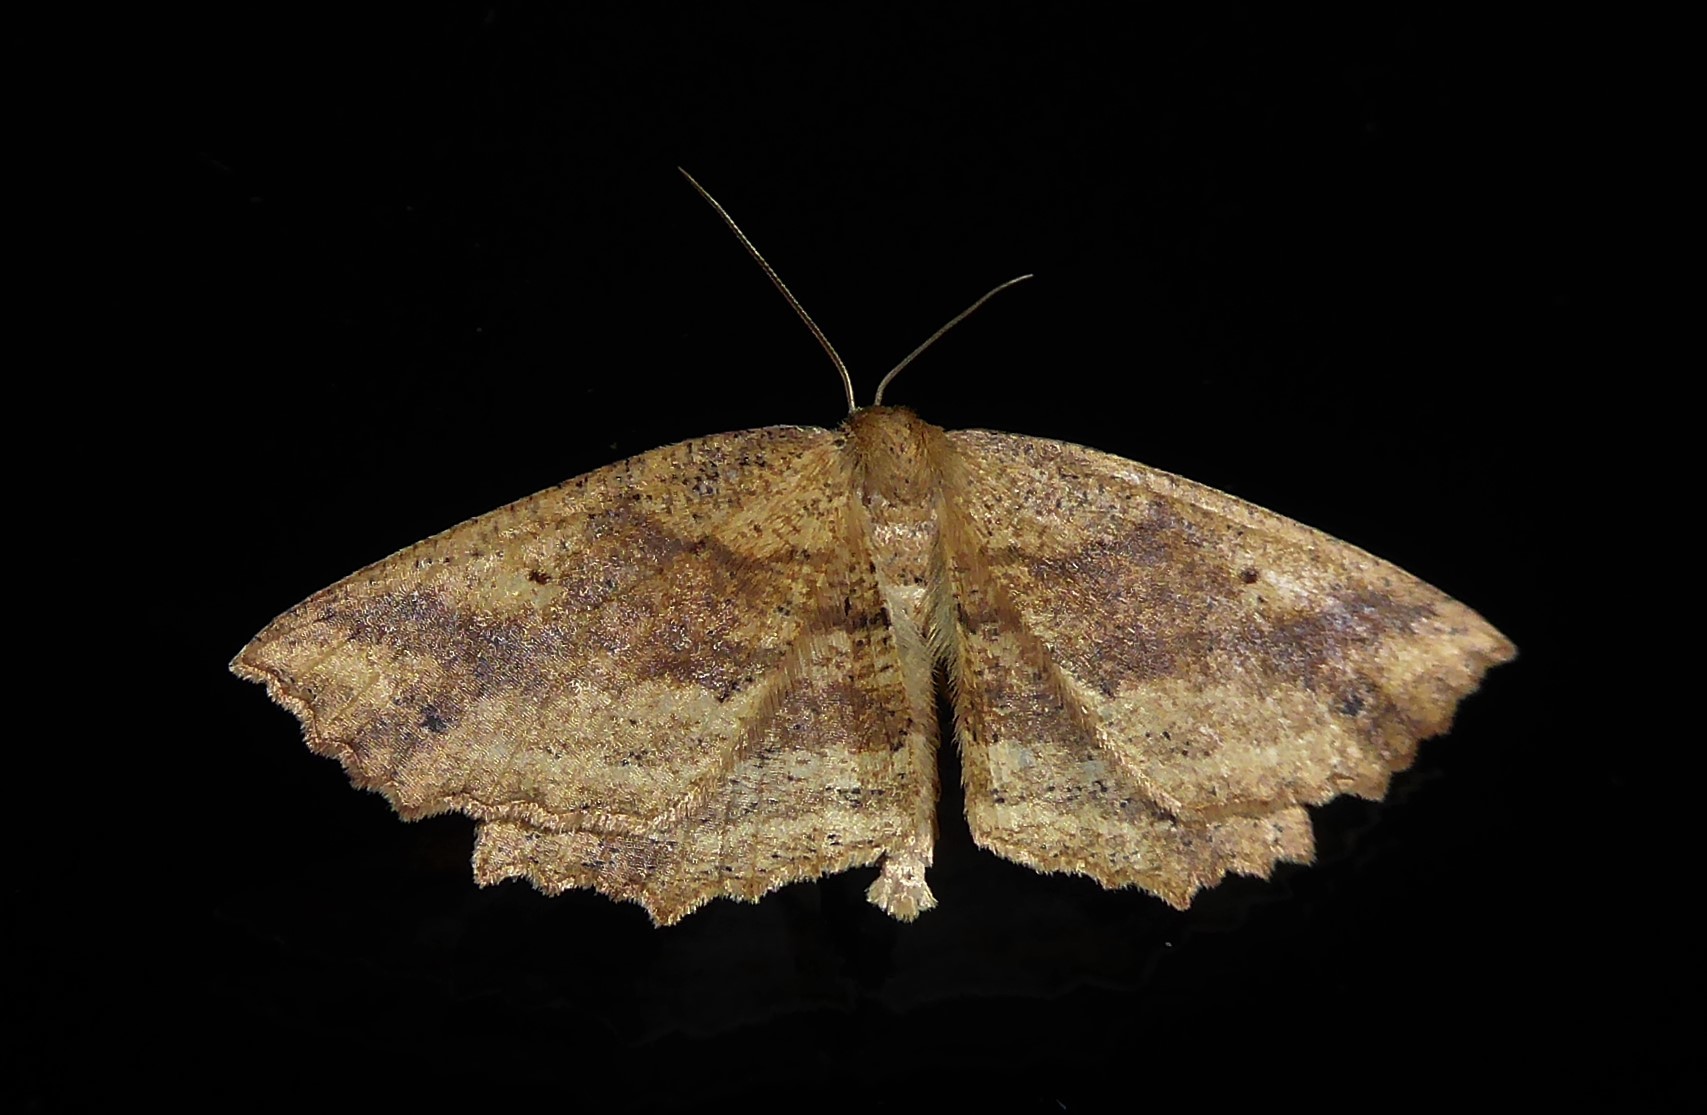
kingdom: Animalia
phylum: Arthropoda
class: Insecta
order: Lepidoptera
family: Geometridae
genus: Xyridacma
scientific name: Xyridacma veronicae
